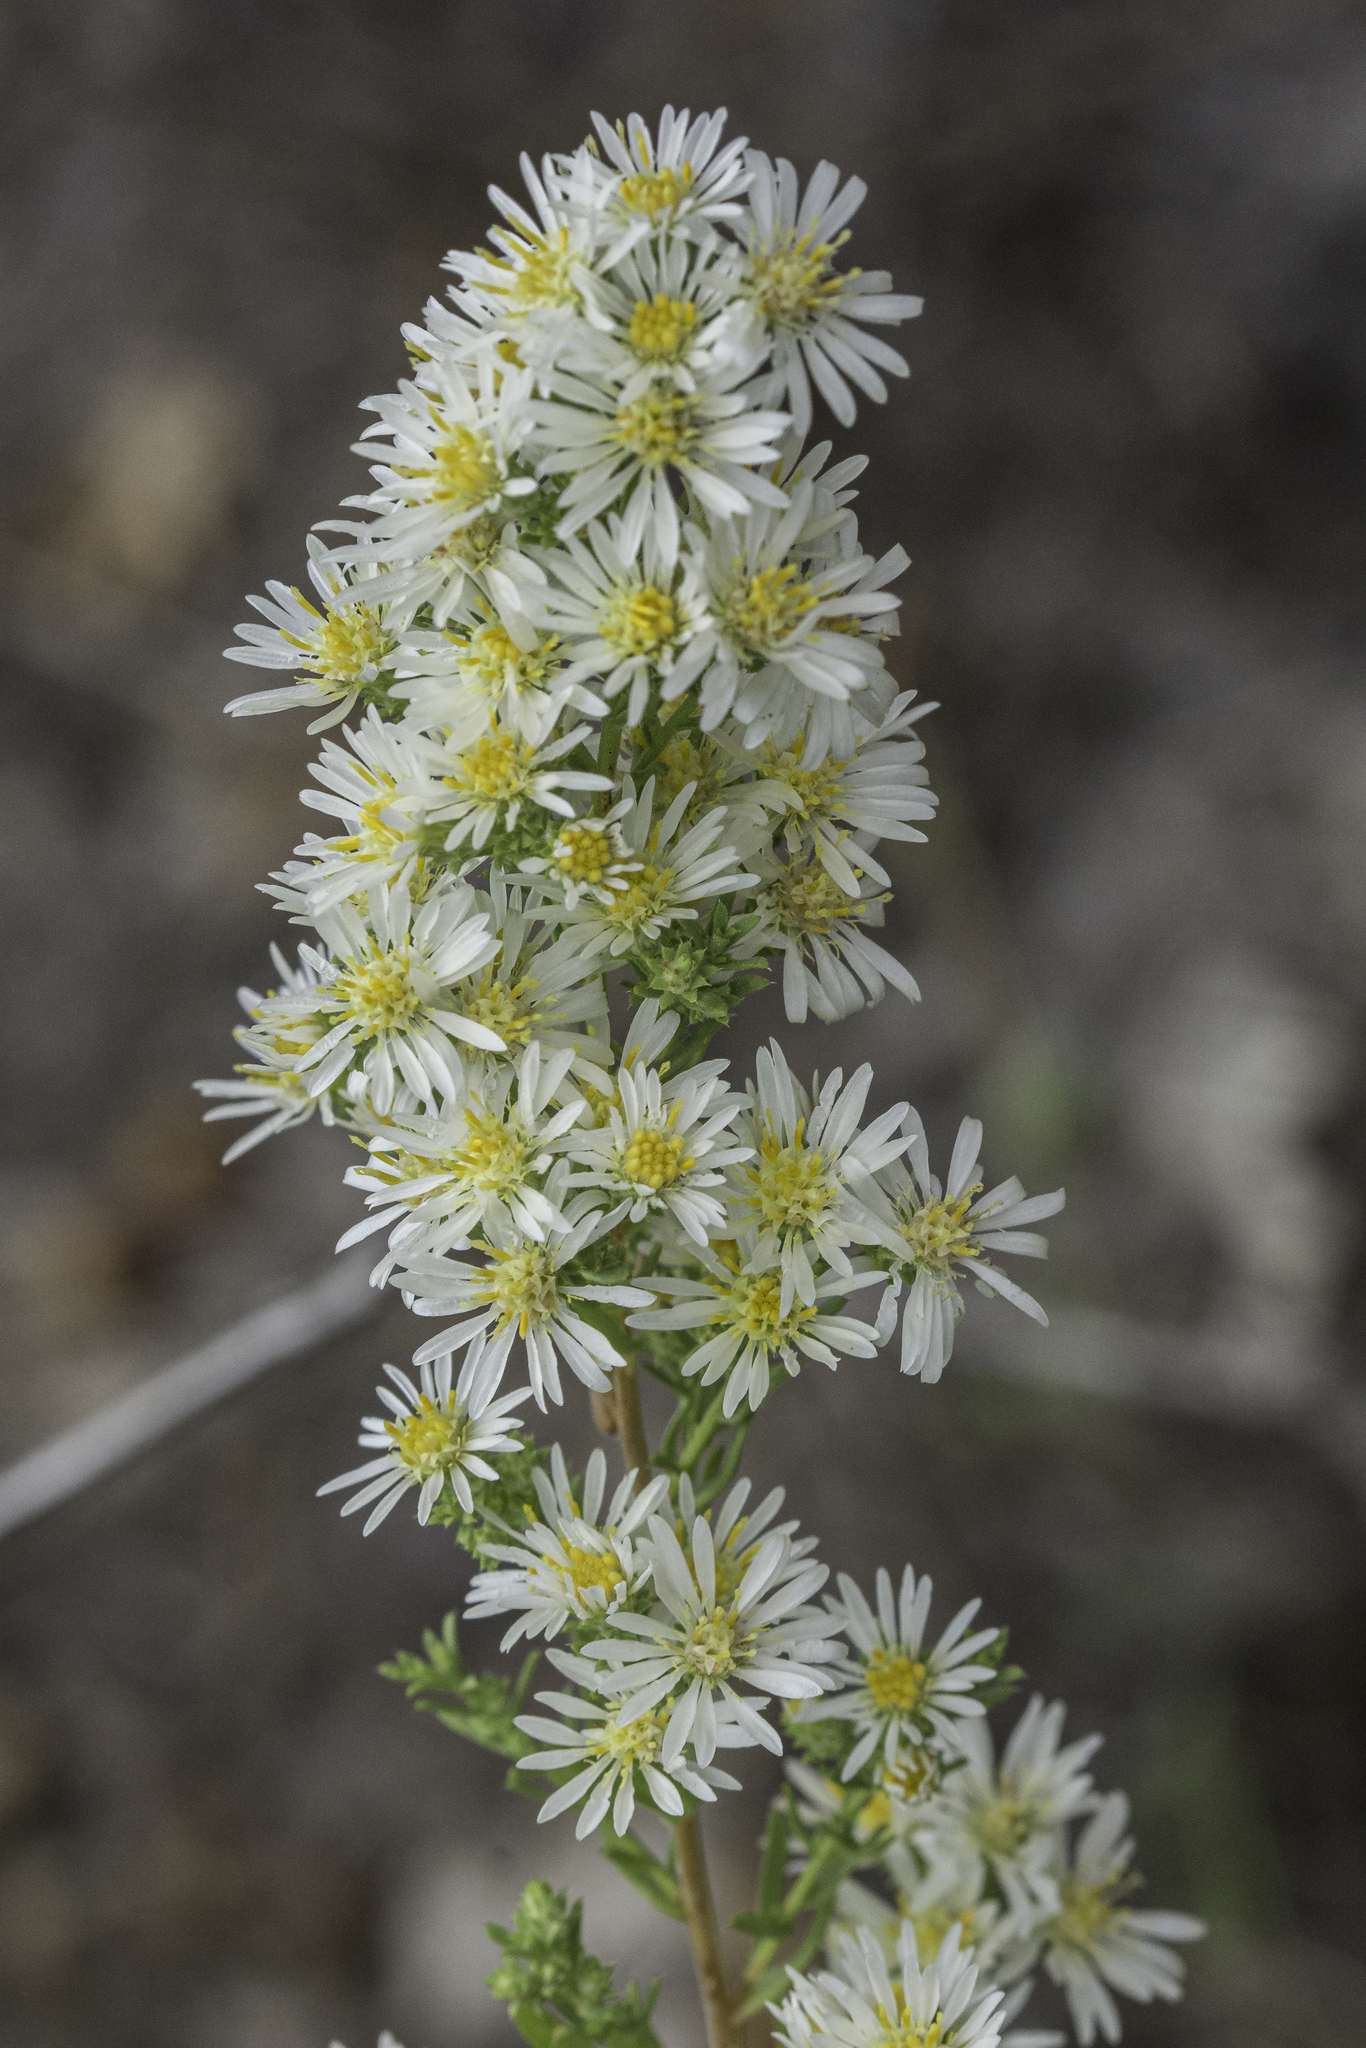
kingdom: Plantae
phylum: Tracheophyta
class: Magnoliopsida
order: Asterales
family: Asteraceae
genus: Symphyotrichum
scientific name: Symphyotrichum ericoides
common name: Heath aster
